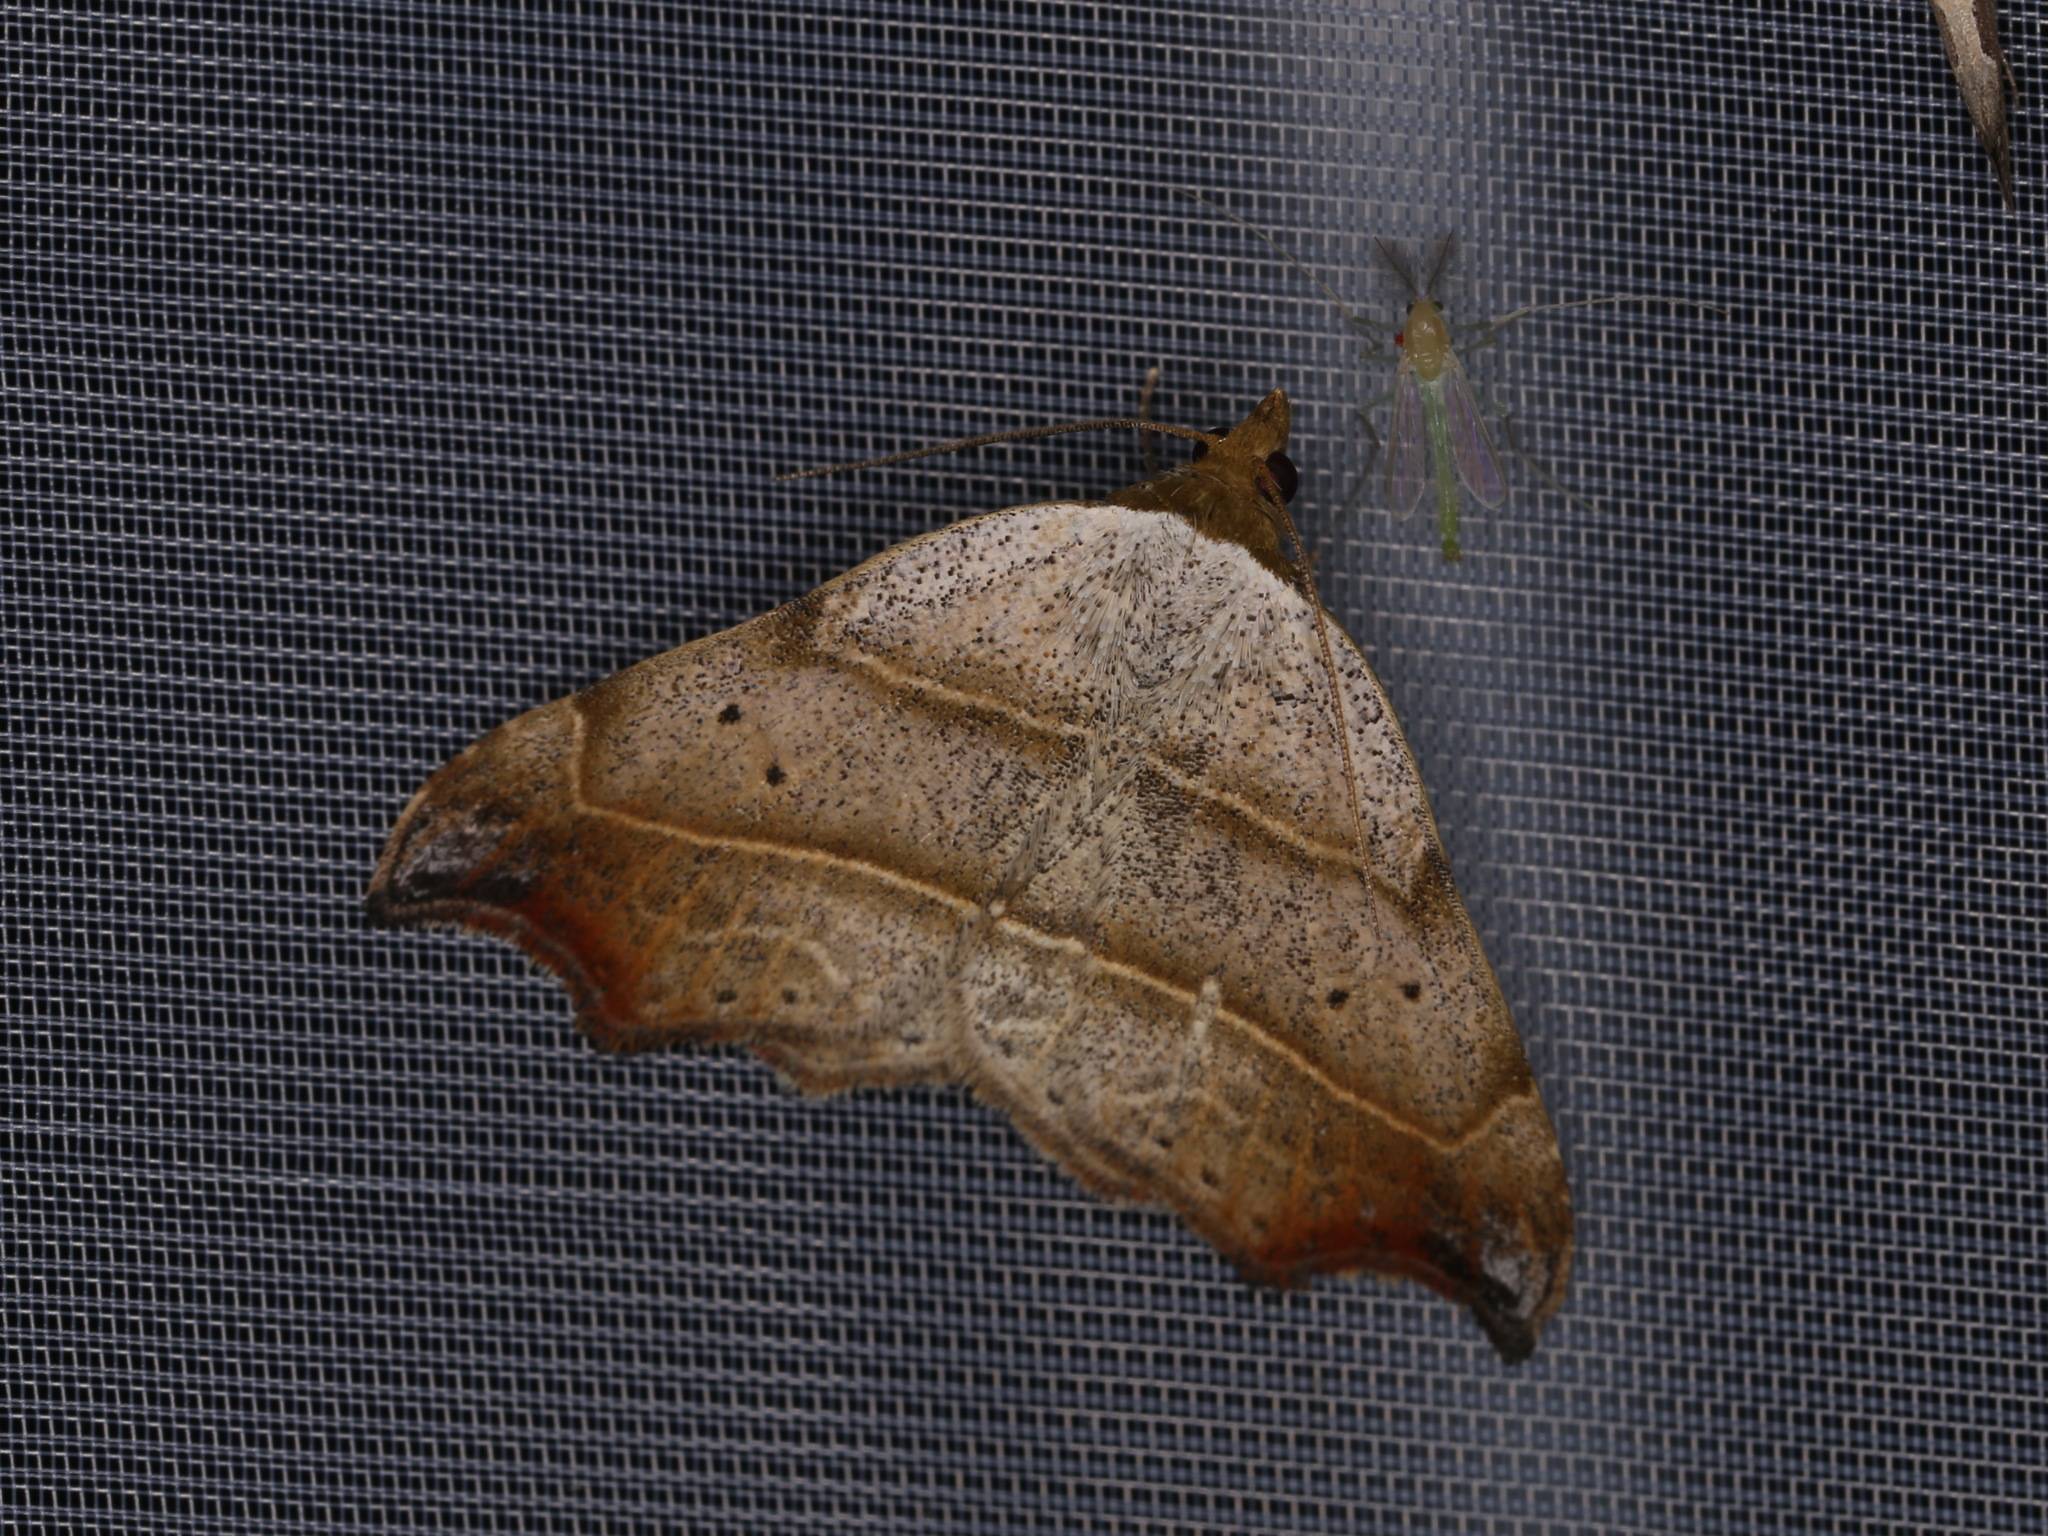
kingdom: Animalia
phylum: Arthropoda
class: Insecta
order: Lepidoptera
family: Erebidae
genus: Laspeyria
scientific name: Laspeyria flexula
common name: Beautiful hook-tip
